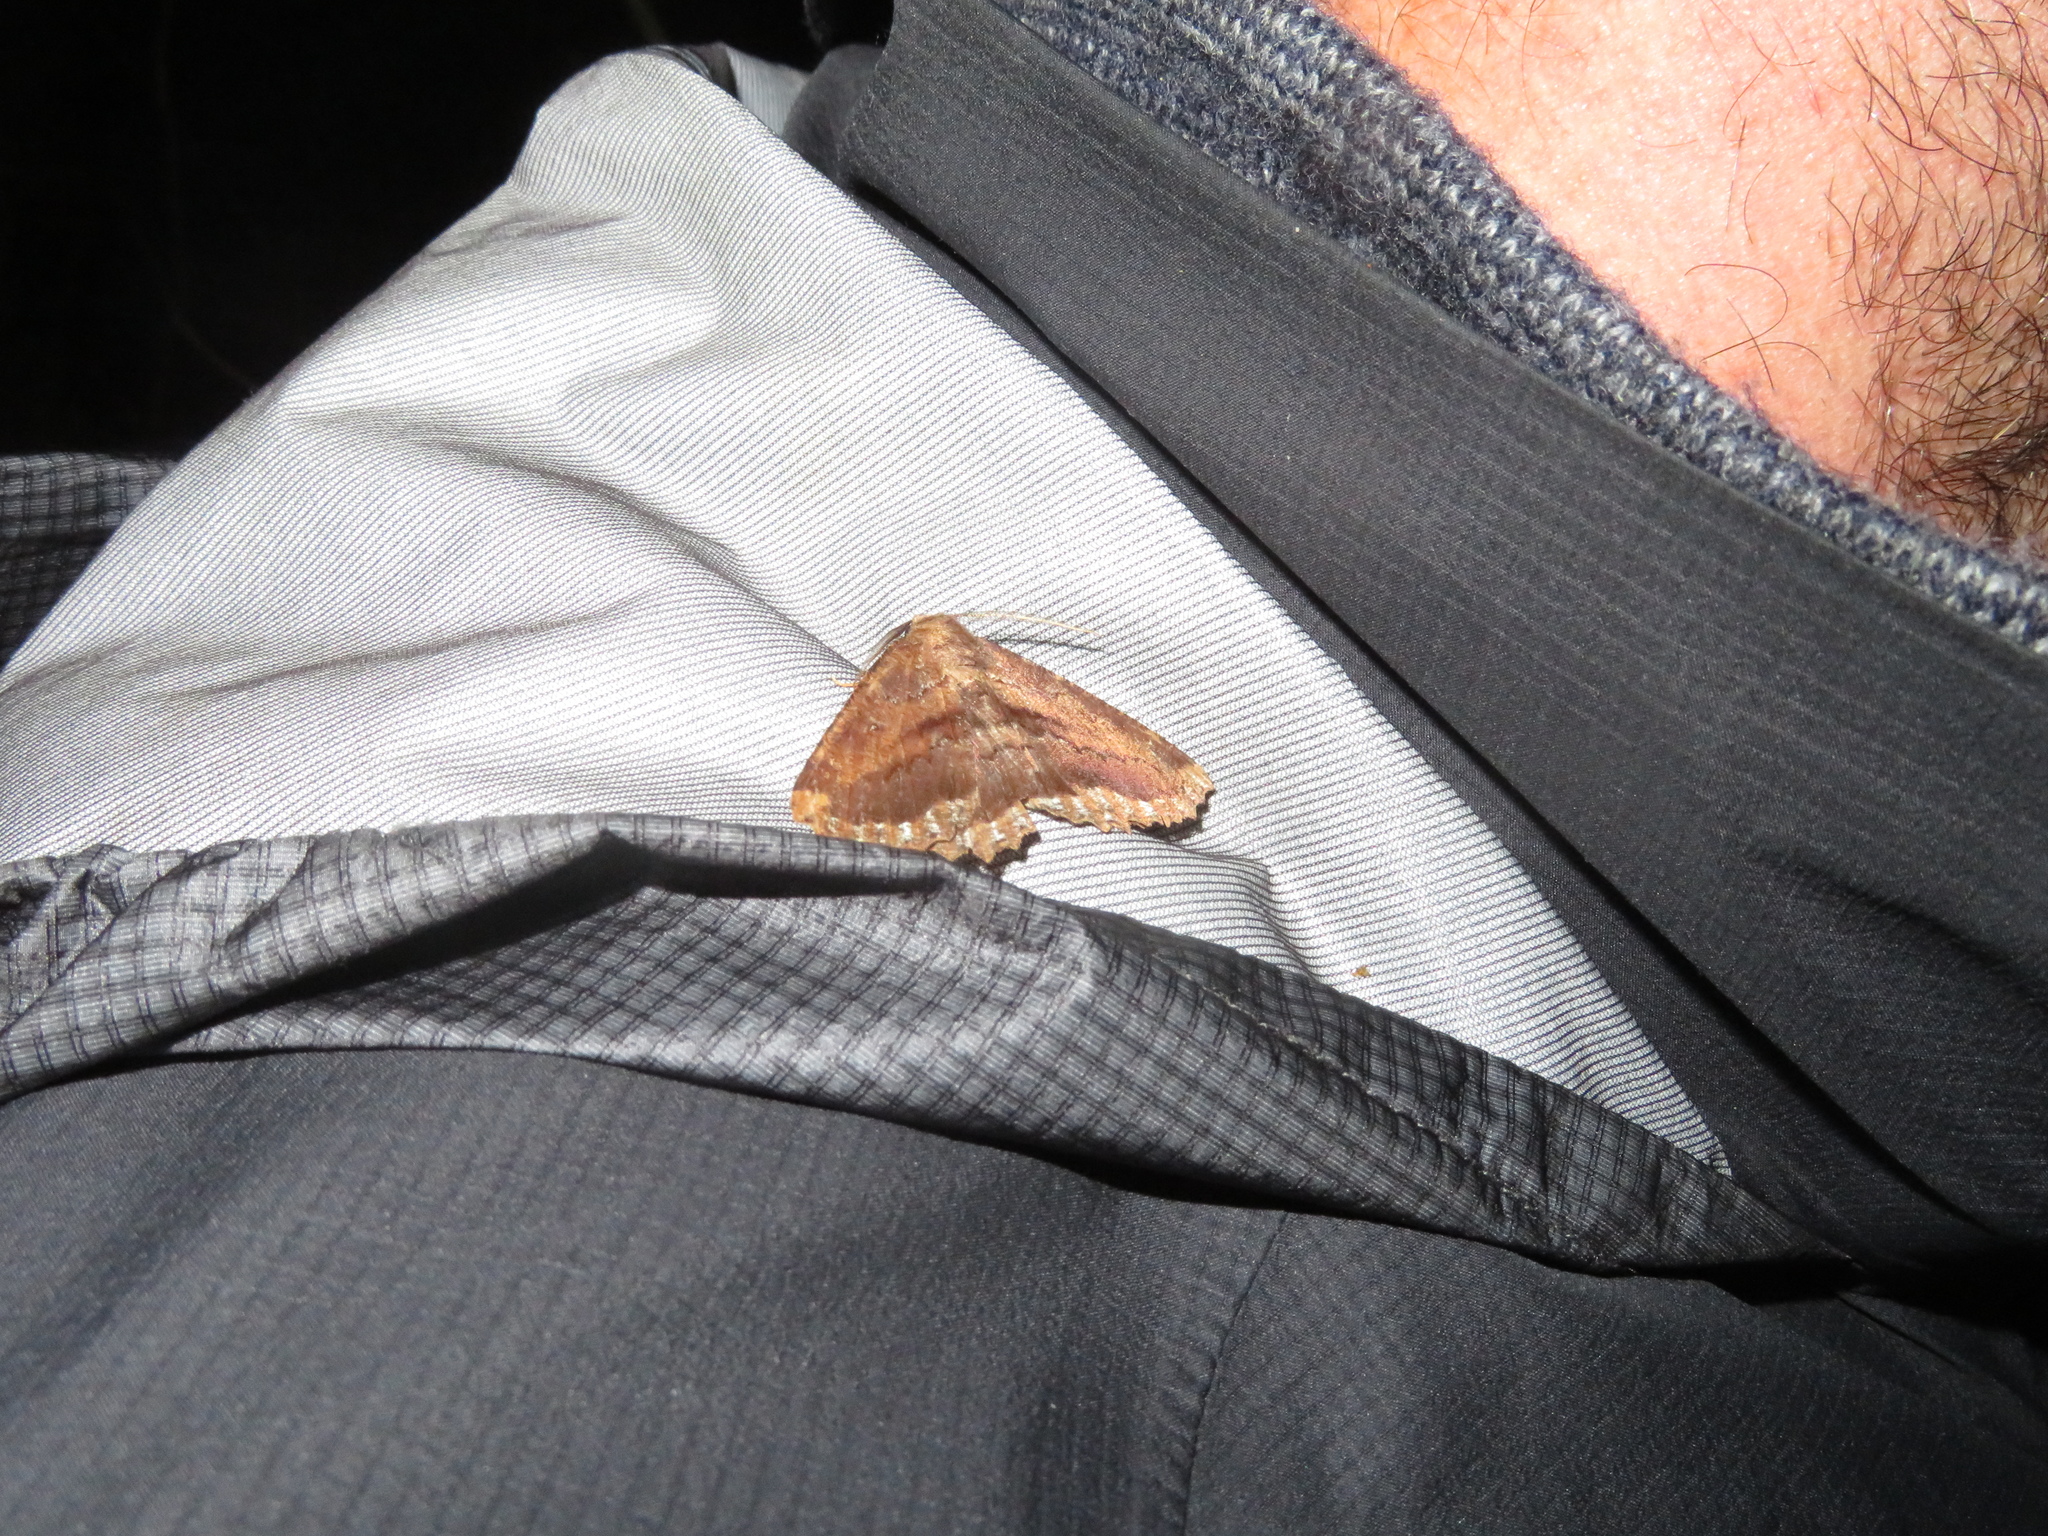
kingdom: Animalia
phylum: Arthropoda
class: Insecta
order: Lepidoptera
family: Geometridae
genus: Gellonia
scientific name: Gellonia dejectaria
